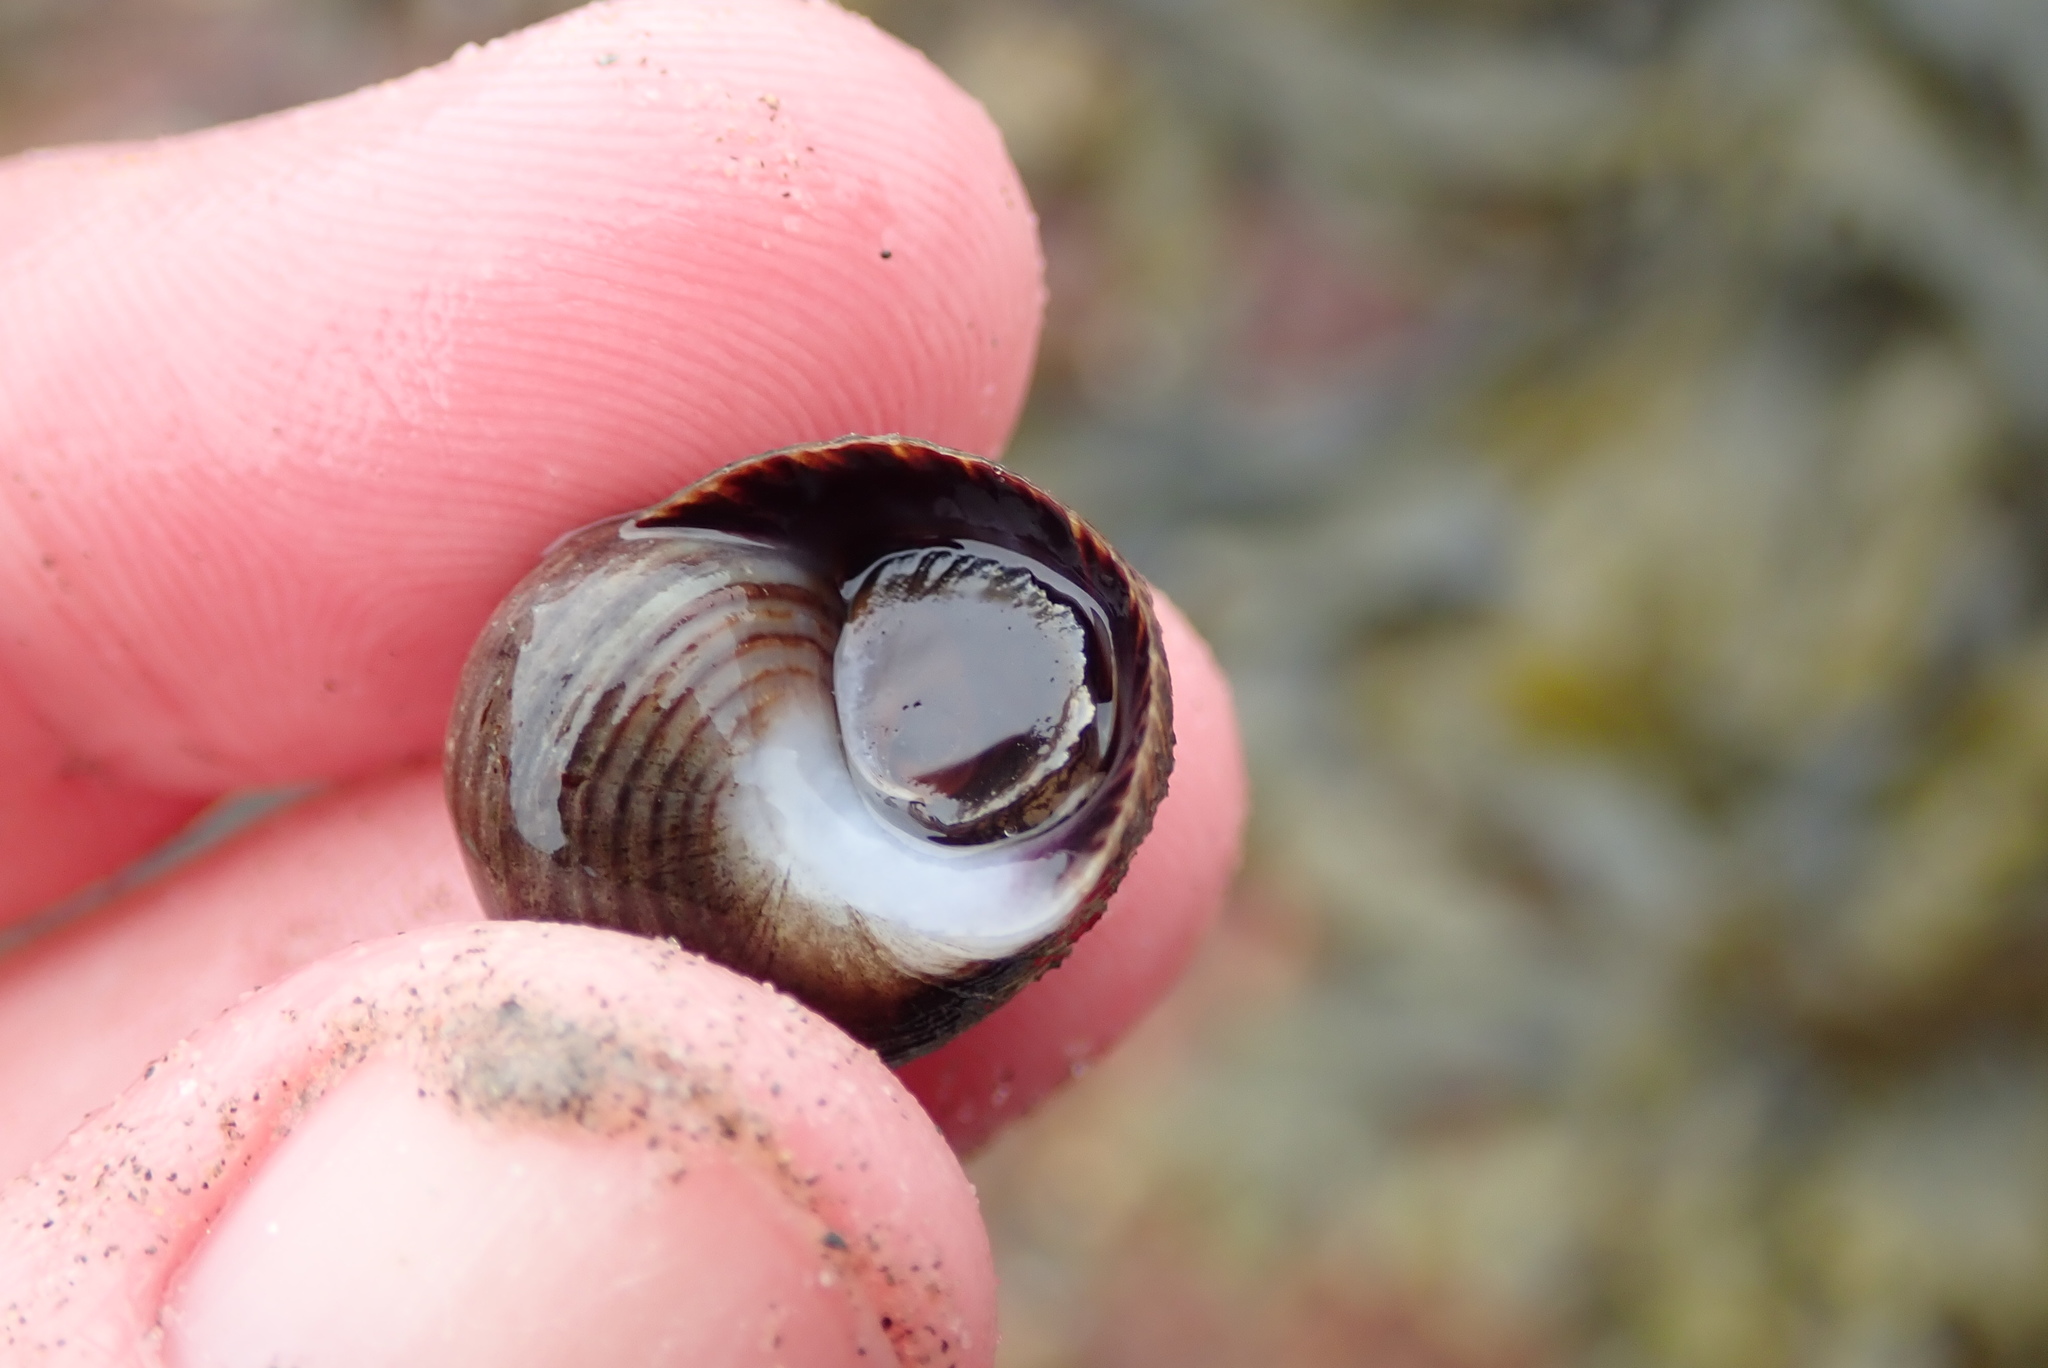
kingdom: Animalia
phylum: Mollusca
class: Gastropoda
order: Littorinimorpha
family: Littorinidae
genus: Littorina
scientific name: Littorina littorea
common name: Common periwinkle
